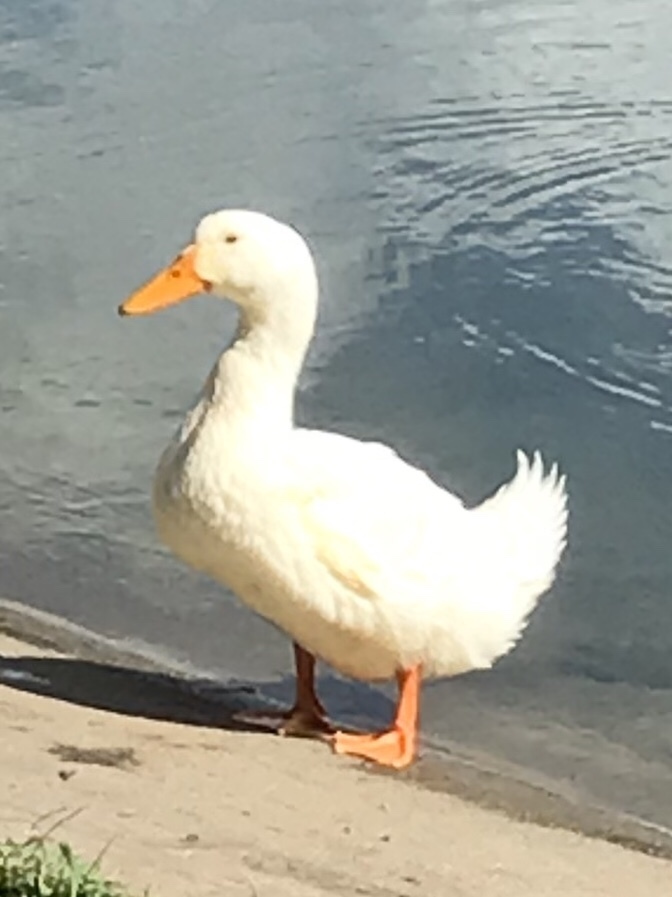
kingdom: Animalia
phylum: Chordata
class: Aves
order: Anseriformes
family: Anatidae
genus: Anas
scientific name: Anas platyrhynchos
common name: Mallard
